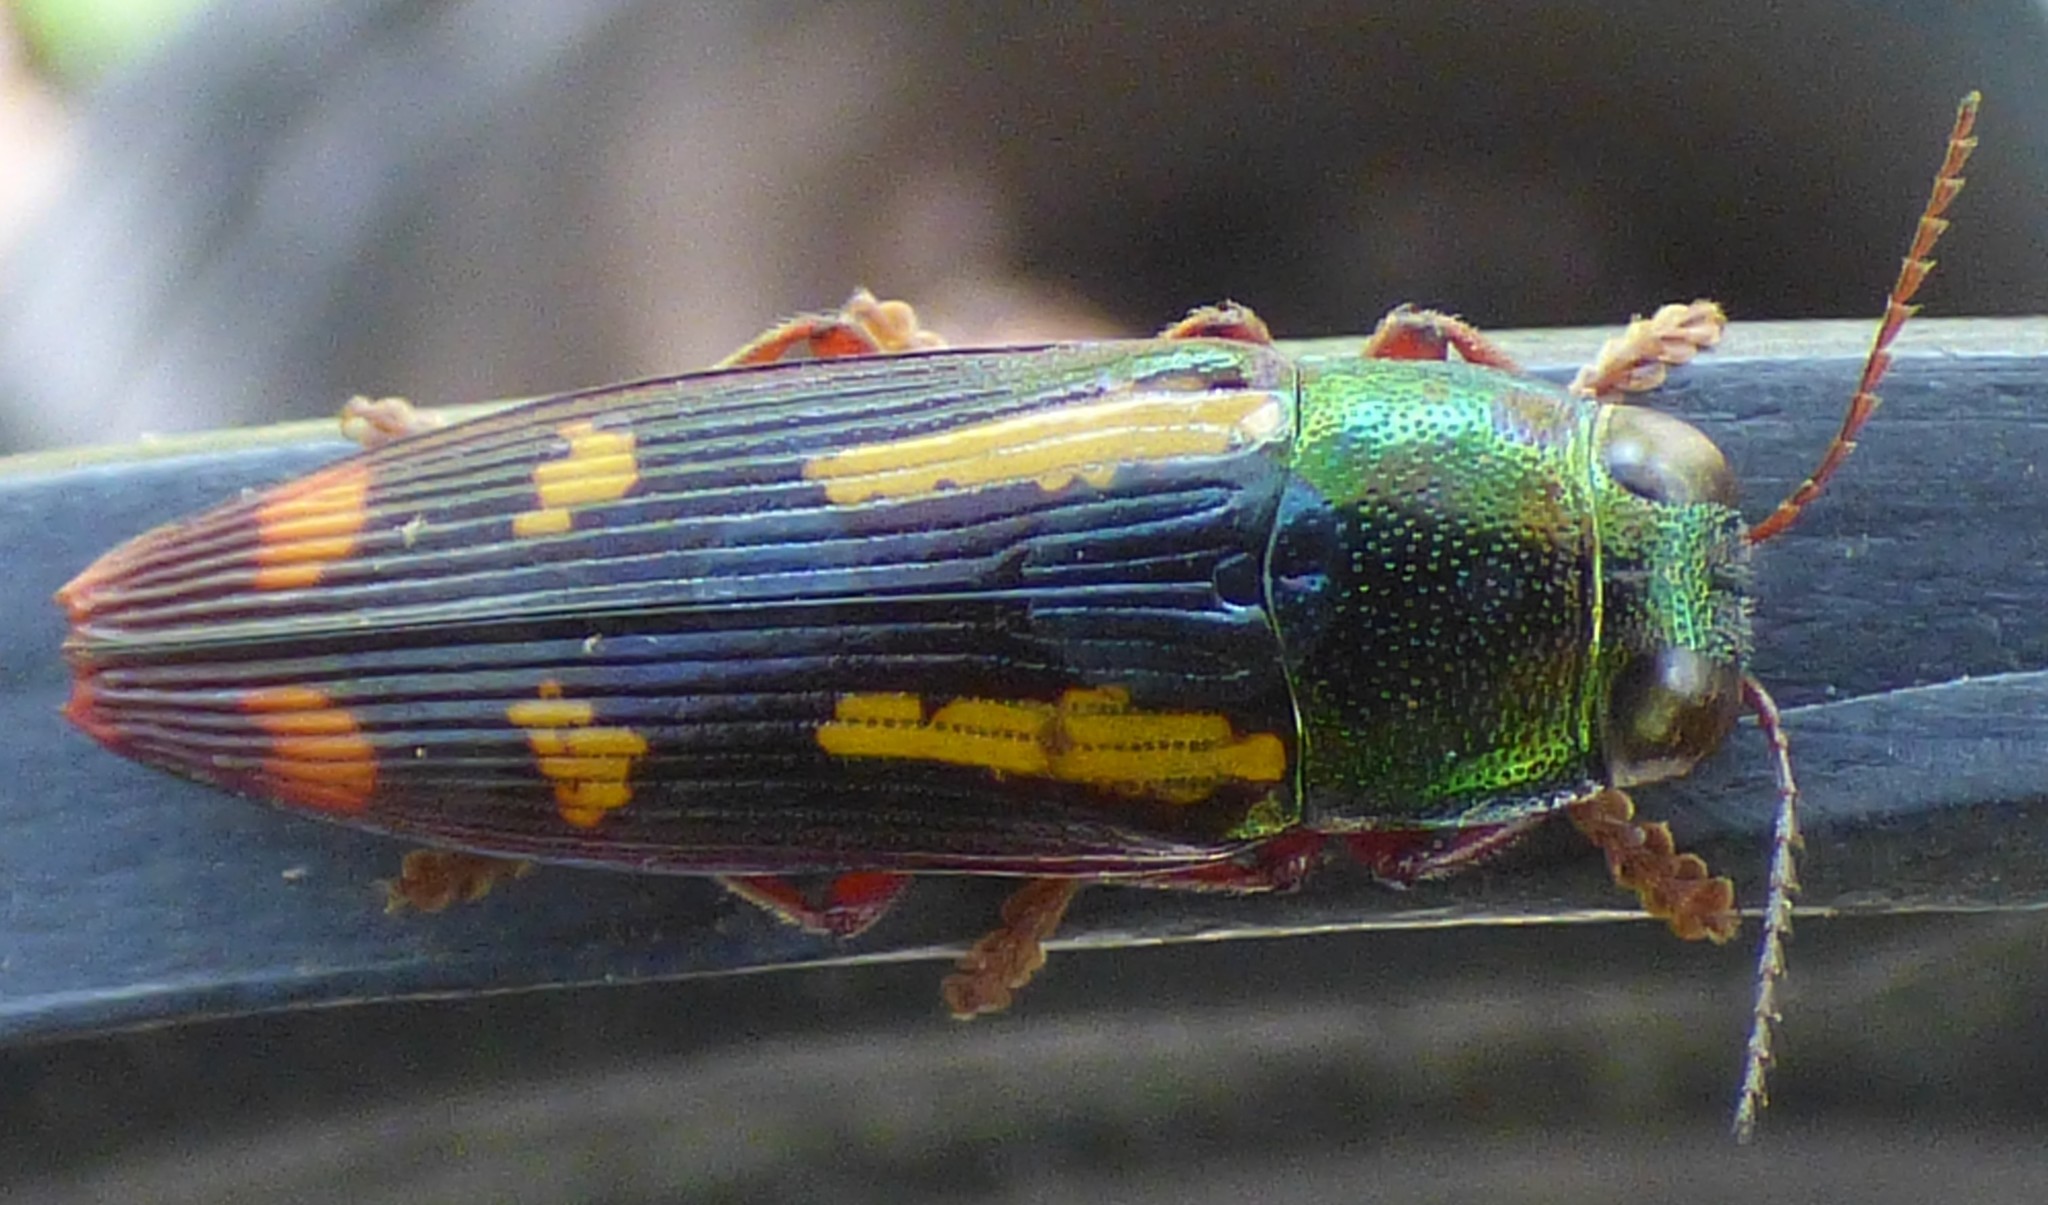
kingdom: Animalia
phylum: Arthropoda
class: Insecta
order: Coleoptera
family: Buprestidae
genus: Buprestis
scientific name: Buprestis rufipes
